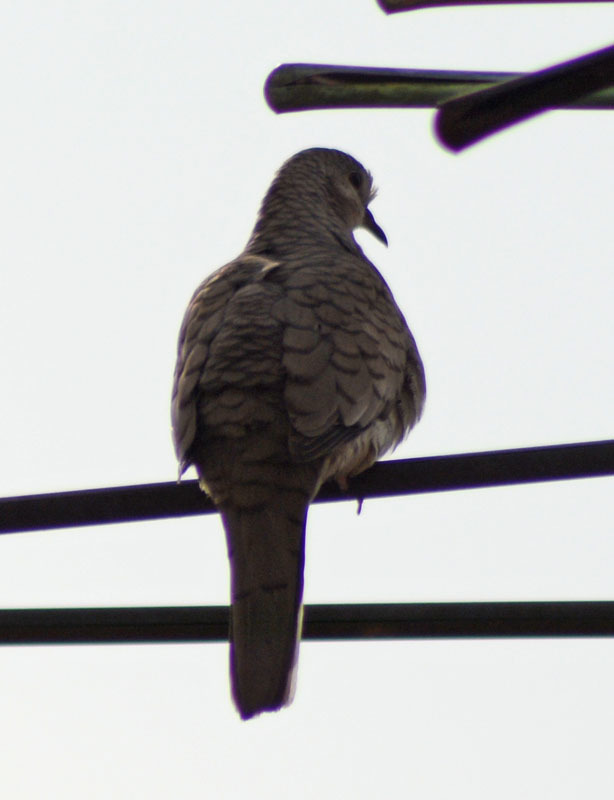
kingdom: Animalia
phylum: Chordata
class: Aves
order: Columbiformes
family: Columbidae
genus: Columbina
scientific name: Columbina inca
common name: Inca dove
